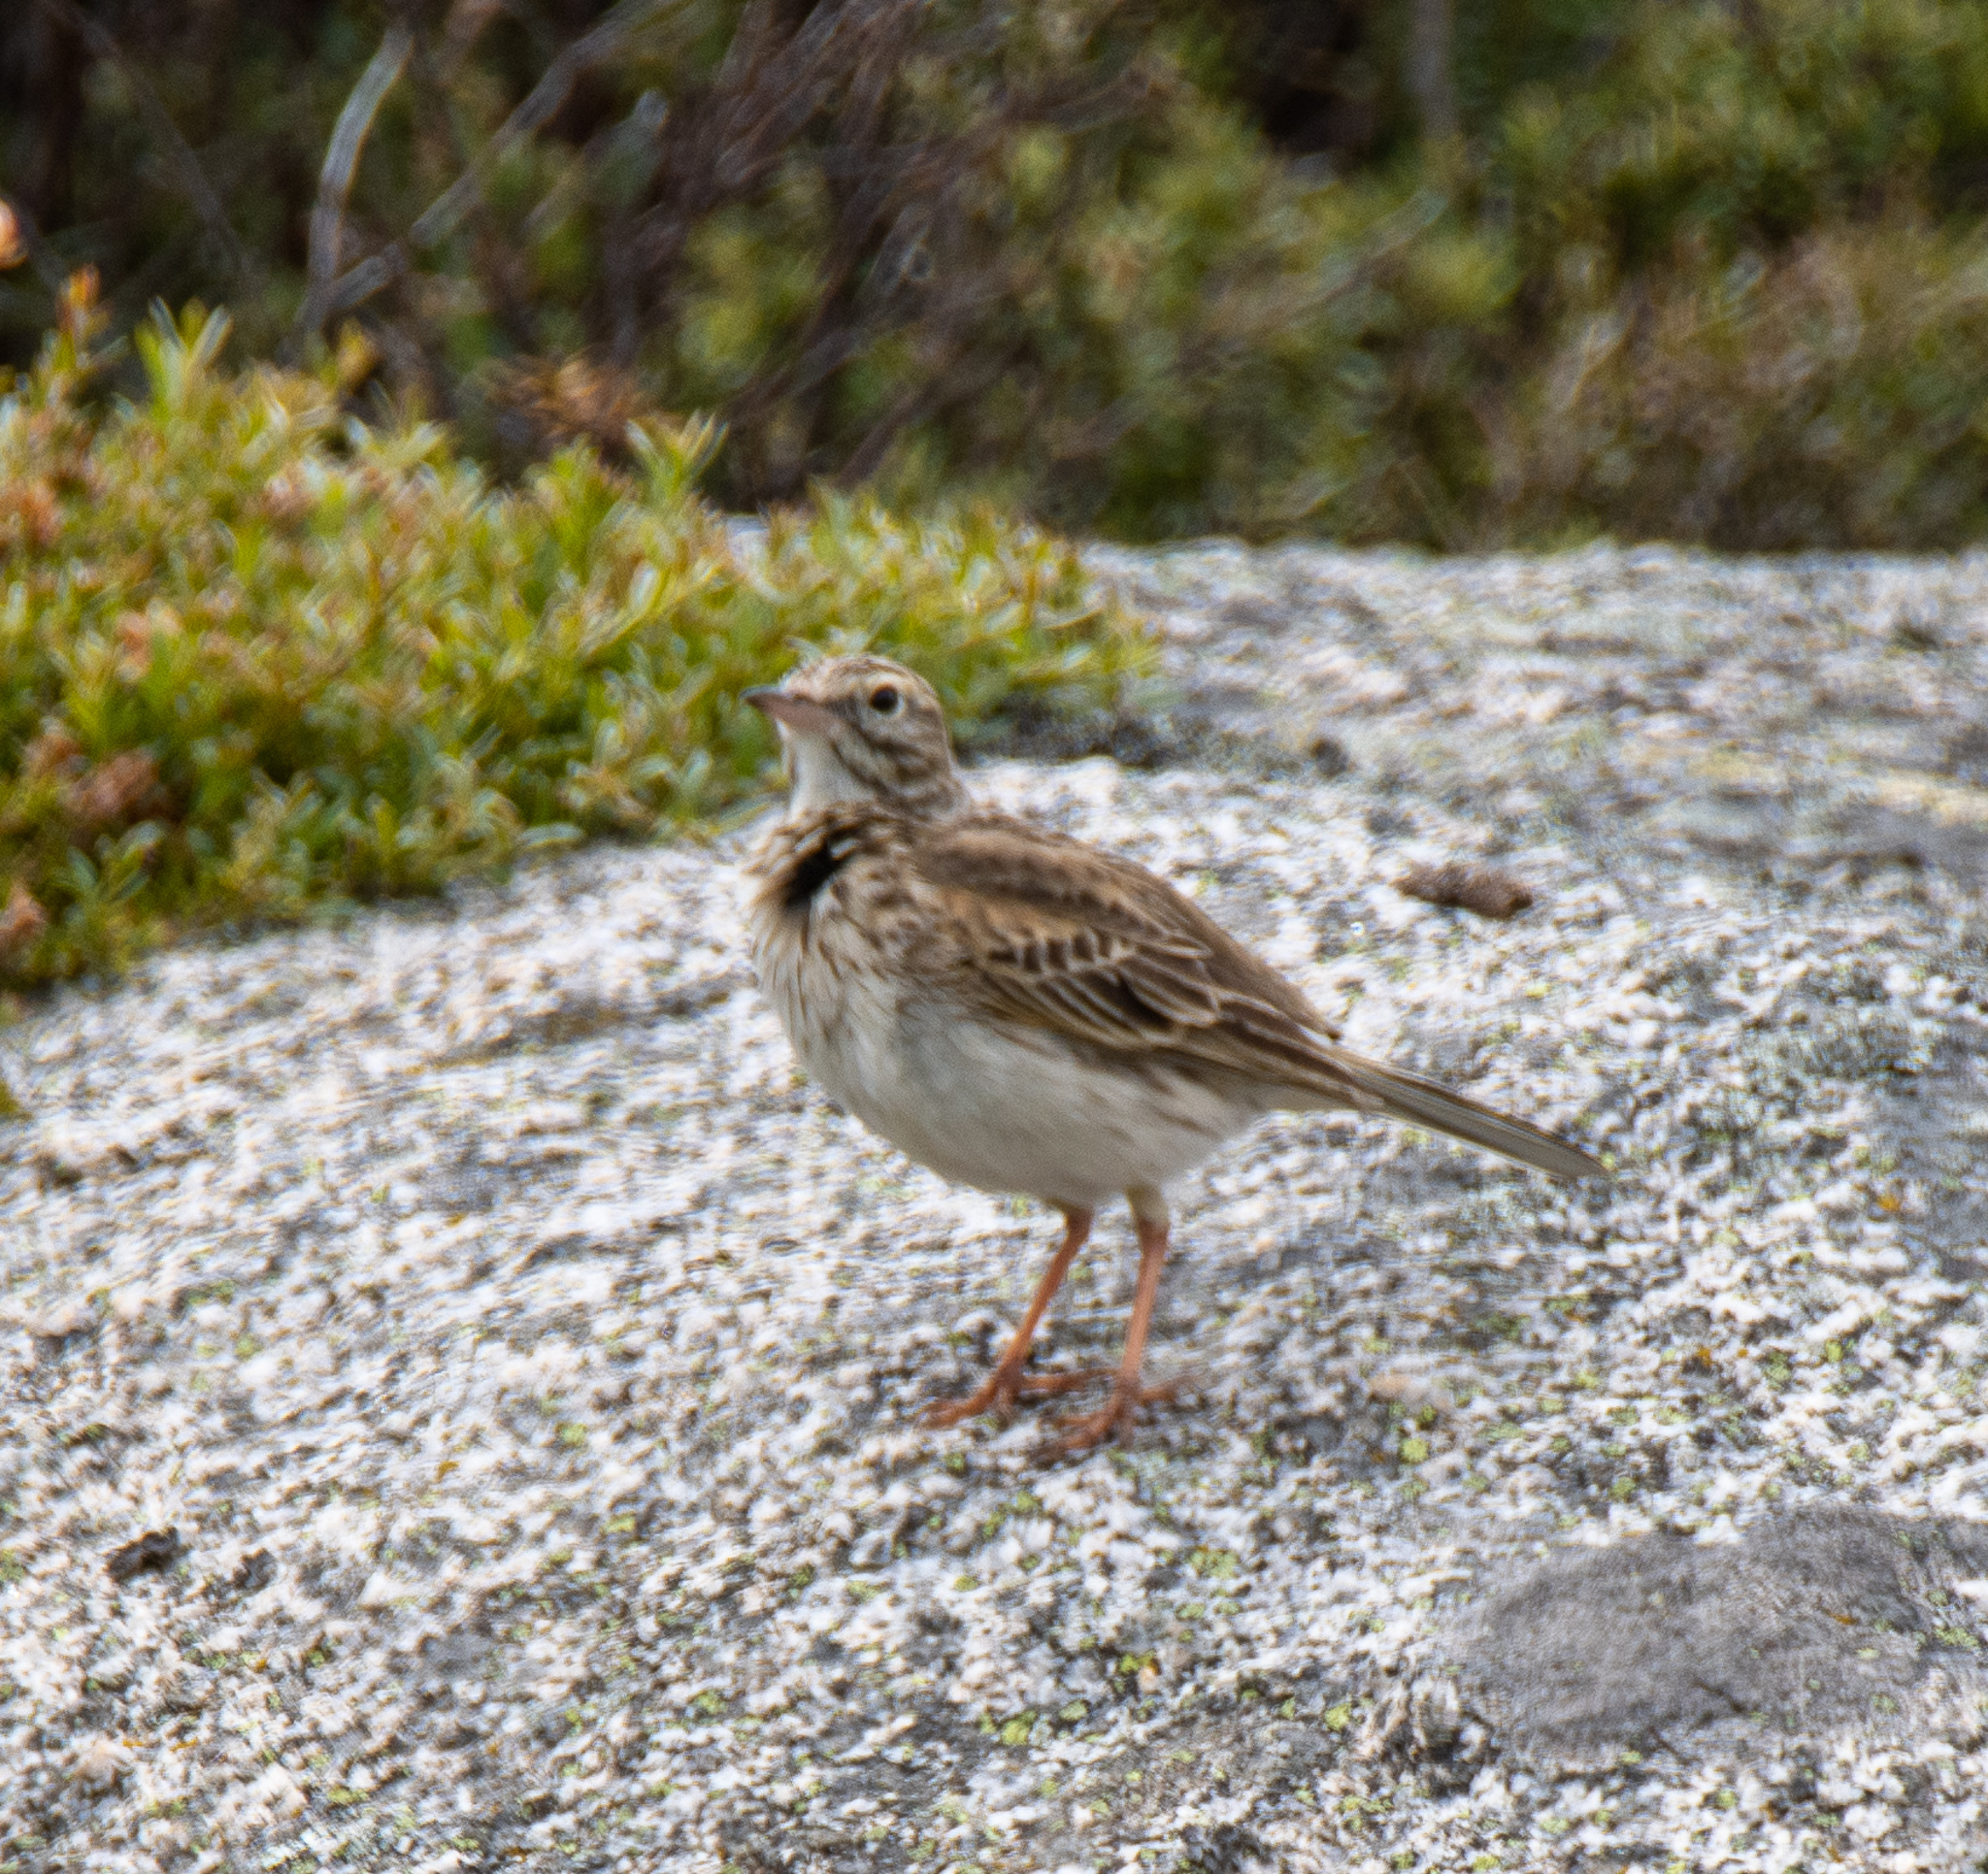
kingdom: Animalia
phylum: Chordata
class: Aves
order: Passeriformes
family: Motacillidae
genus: Anthus
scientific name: Anthus australis
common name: Australian pipit
